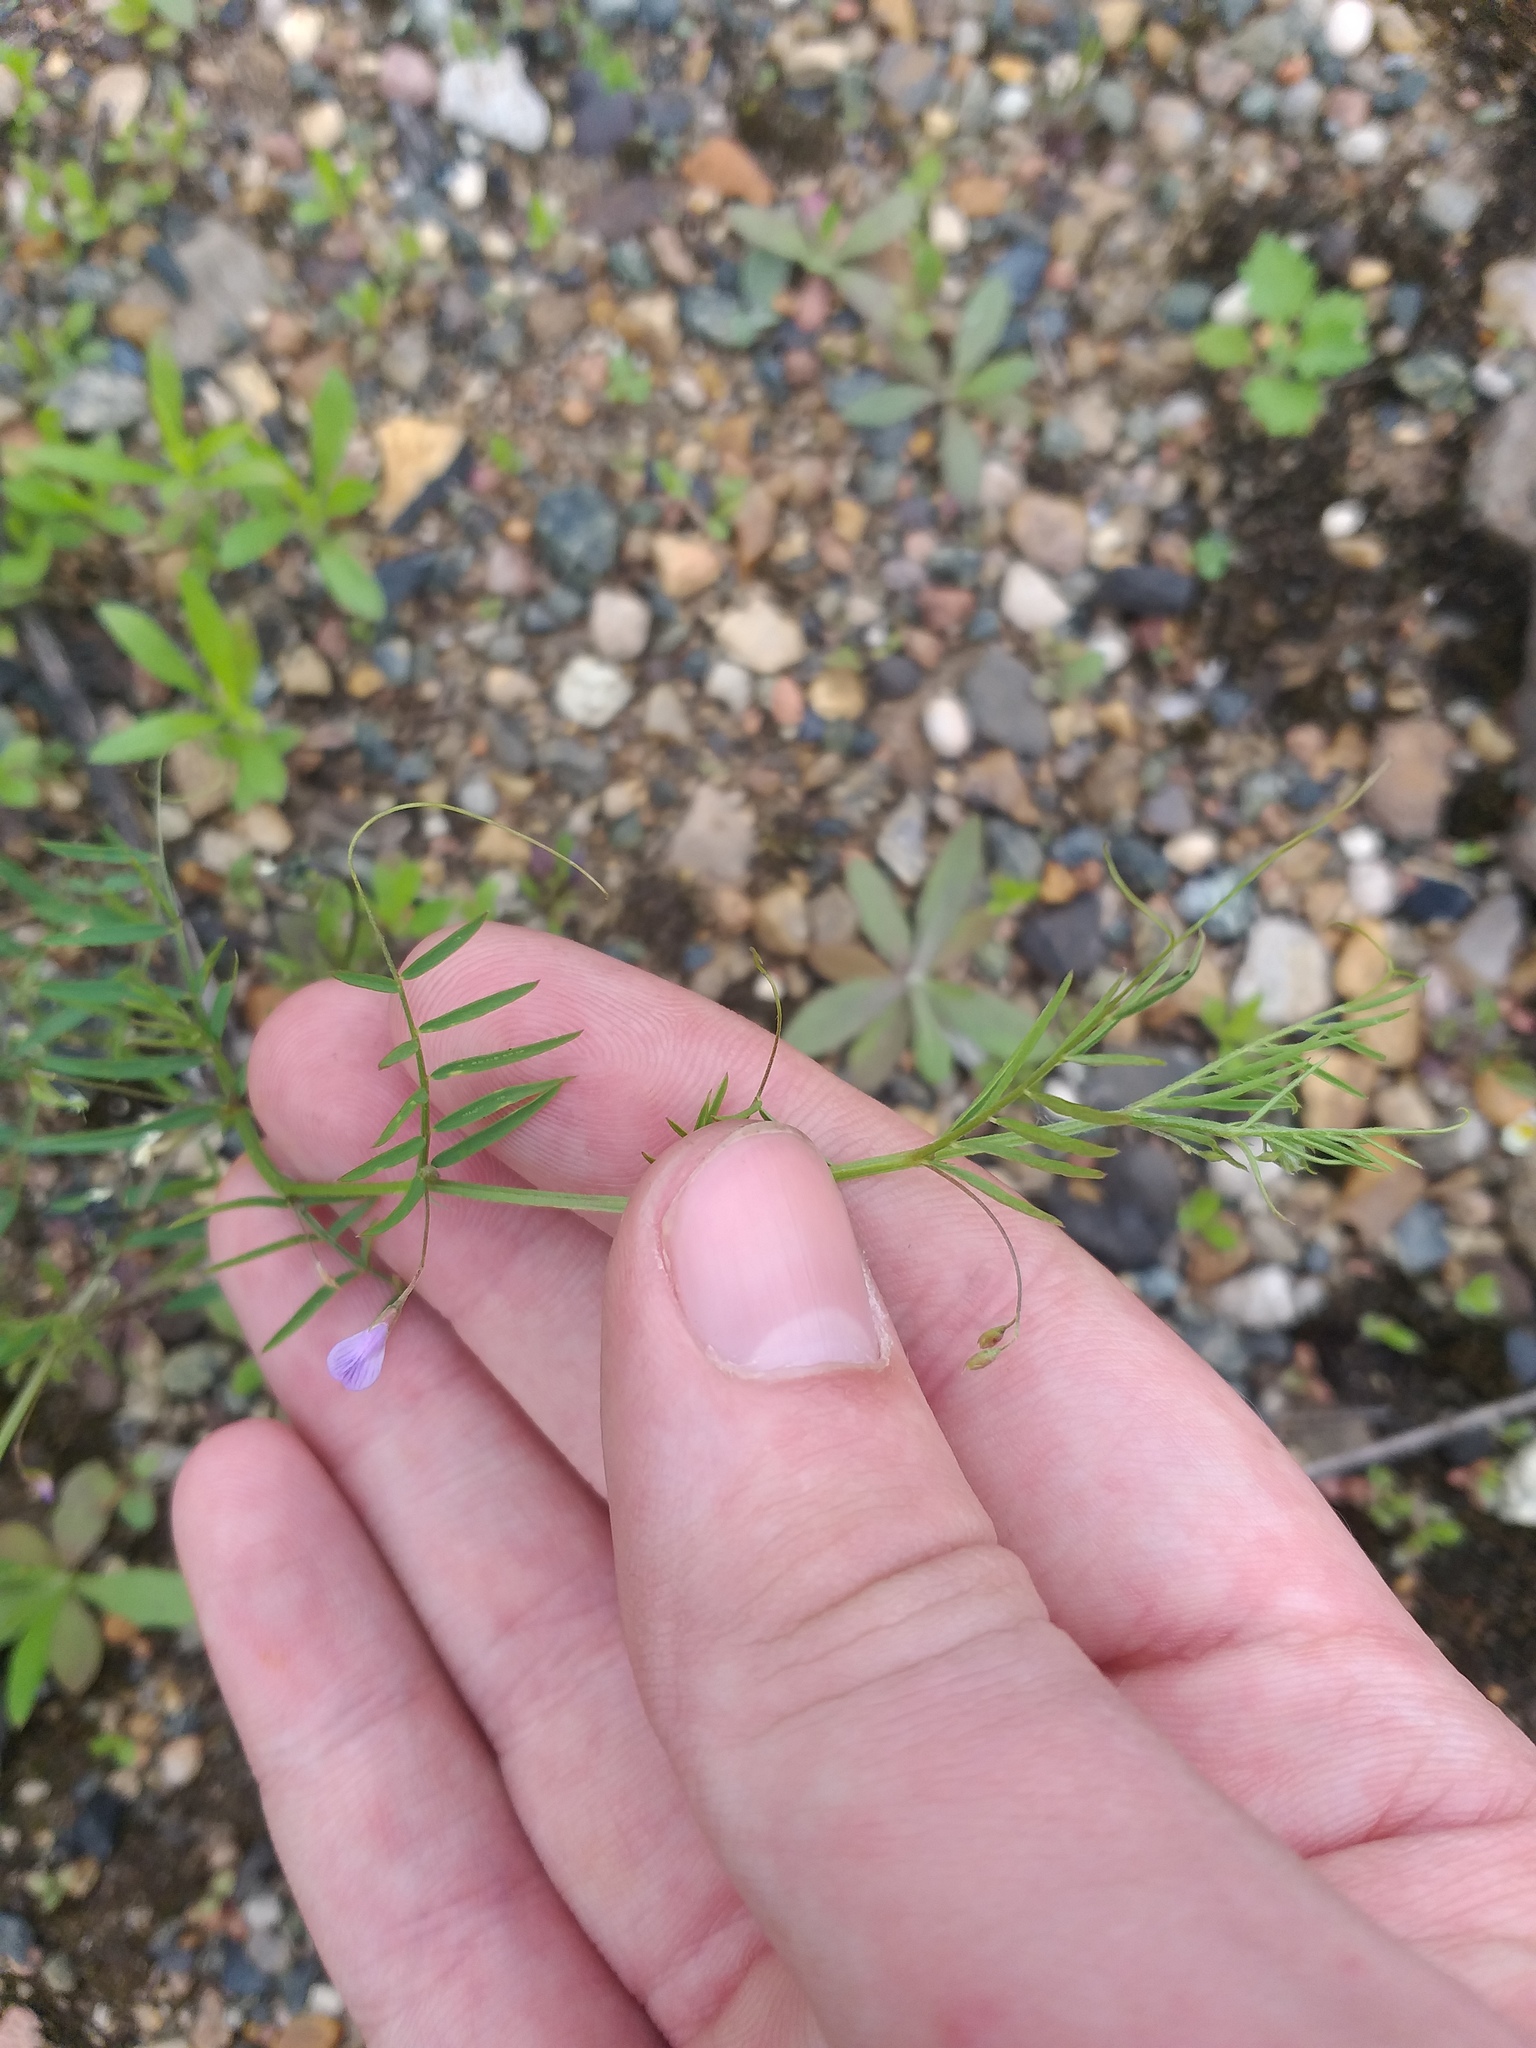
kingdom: Plantae
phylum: Tracheophyta
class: Magnoliopsida
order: Fabales
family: Fabaceae
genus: Vicia
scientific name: Vicia tetrasperma
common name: Smooth tare
